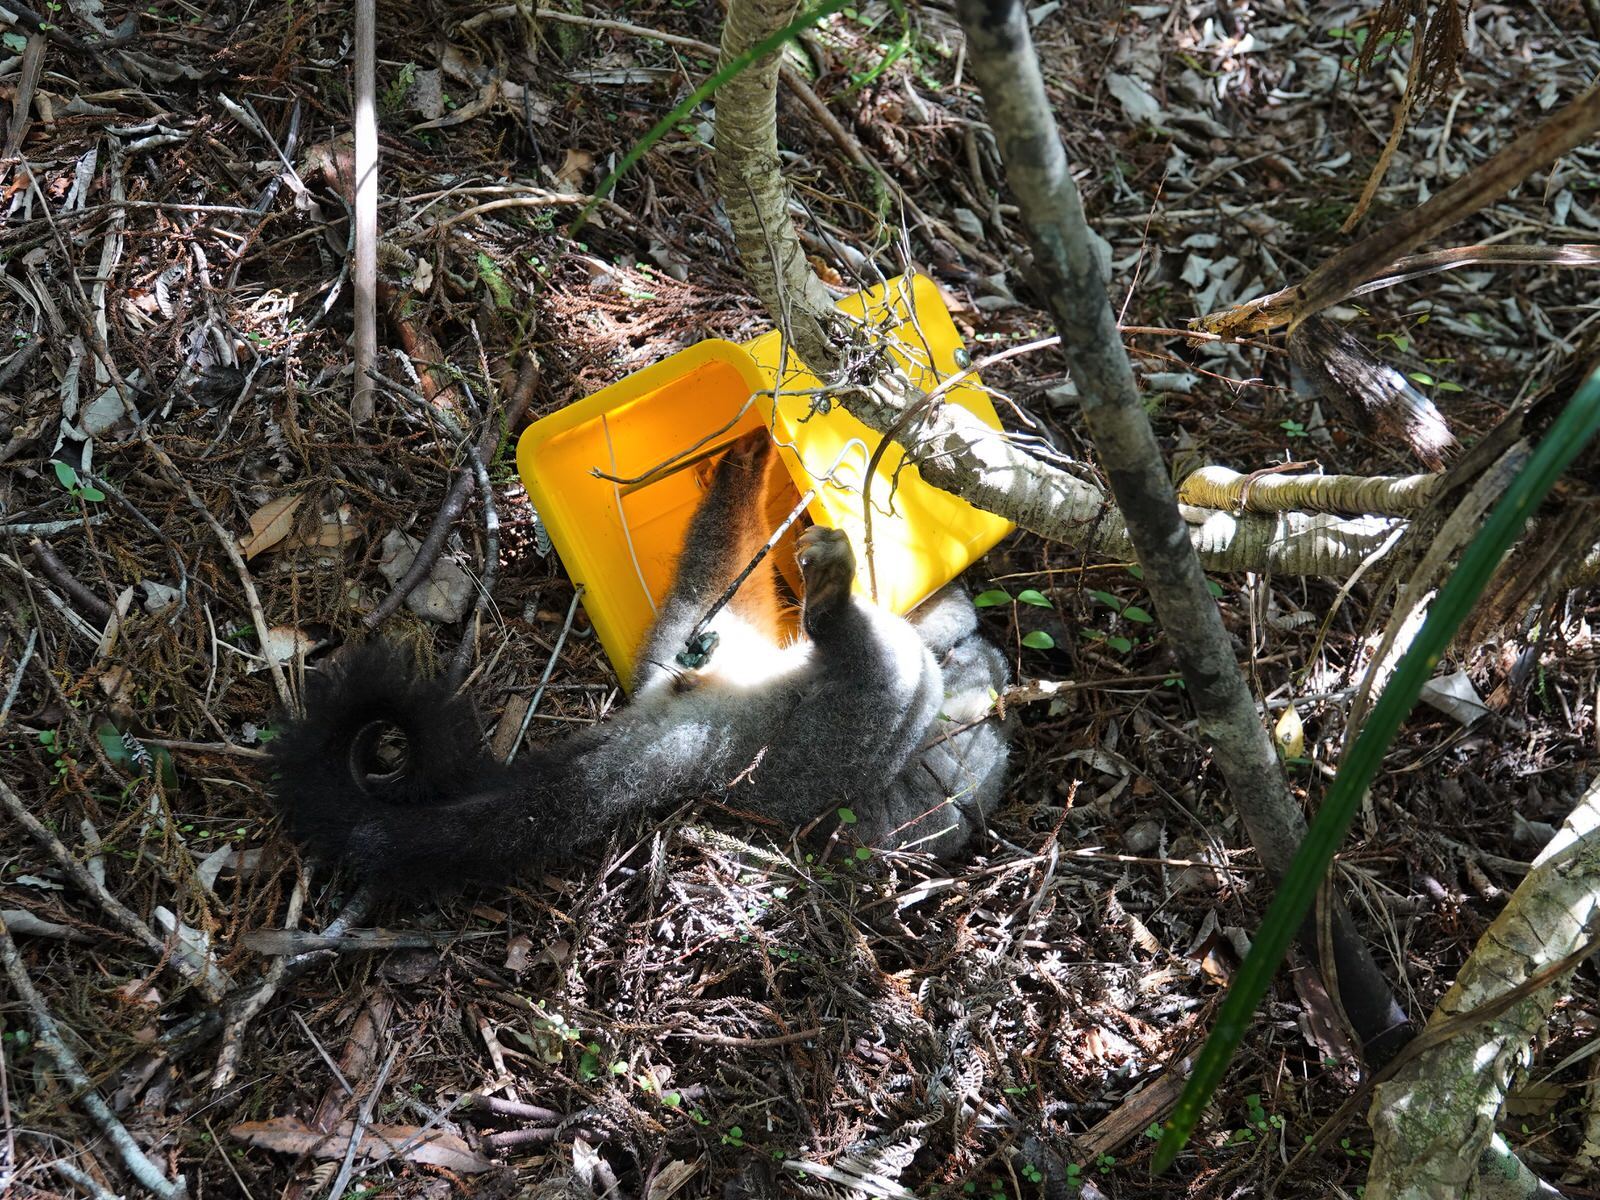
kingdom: Animalia
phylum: Chordata
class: Mammalia
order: Diprotodontia
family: Phalangeridae
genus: Trichosurus
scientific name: Trichosurus vulpecula
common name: Common brushtail
